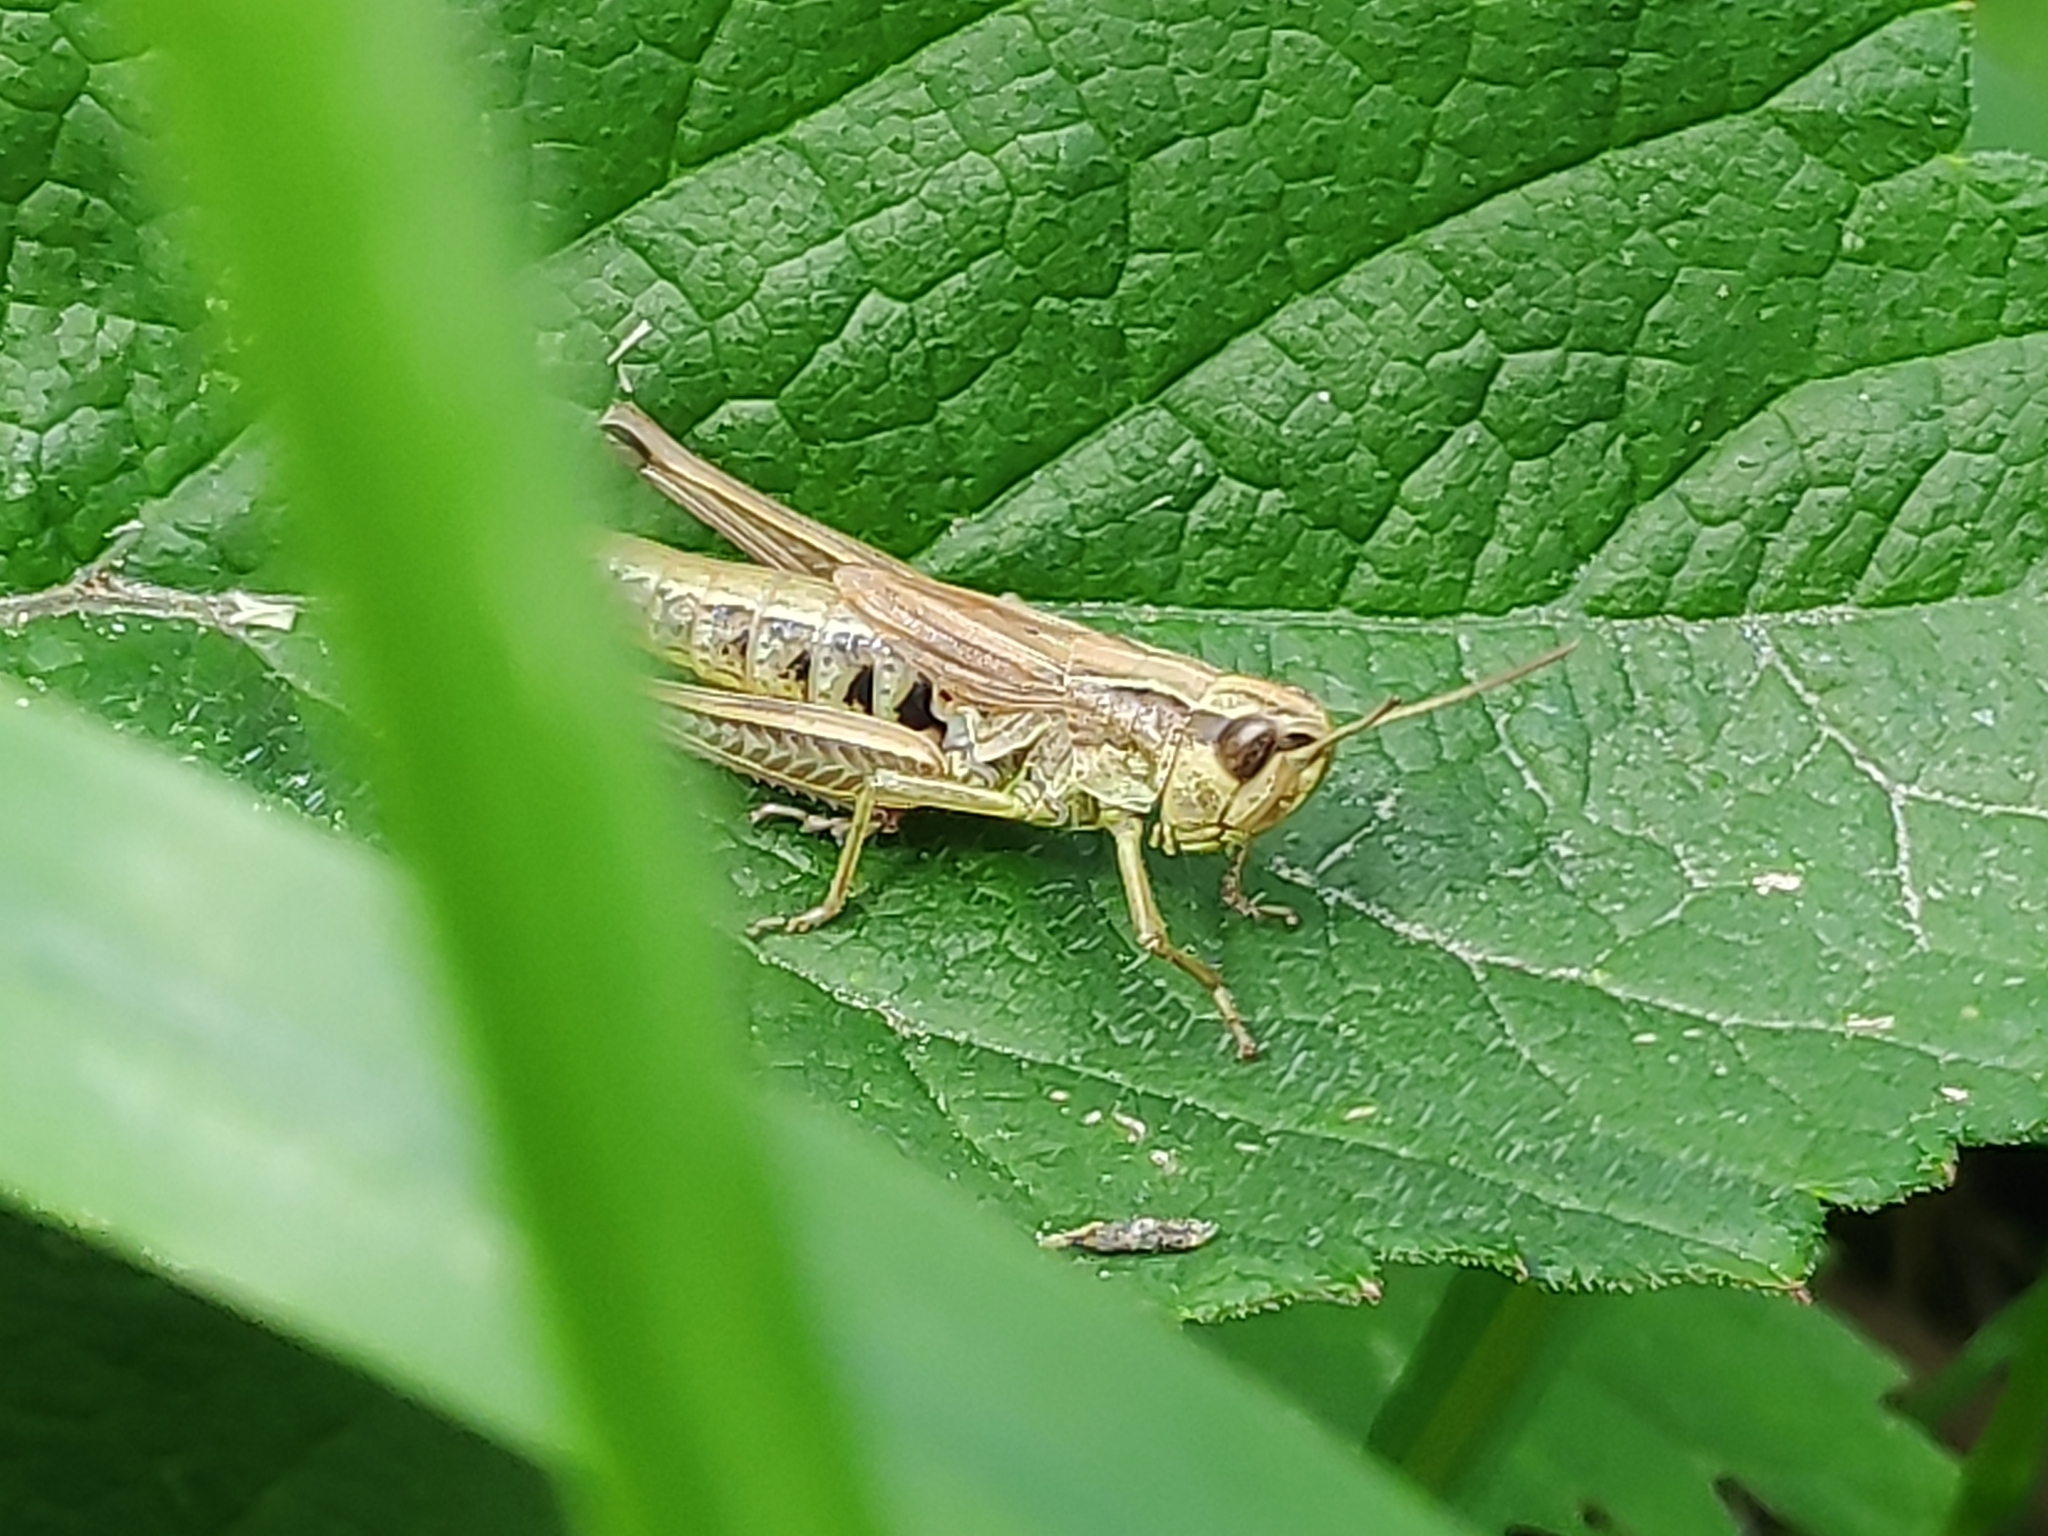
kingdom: Animalia
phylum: Arthropoda
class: Insecta
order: Orthoptera
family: Acrididae
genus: Pseudochorthippus
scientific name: Pseudochorthippus parallelus
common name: Meadow grasshopper
